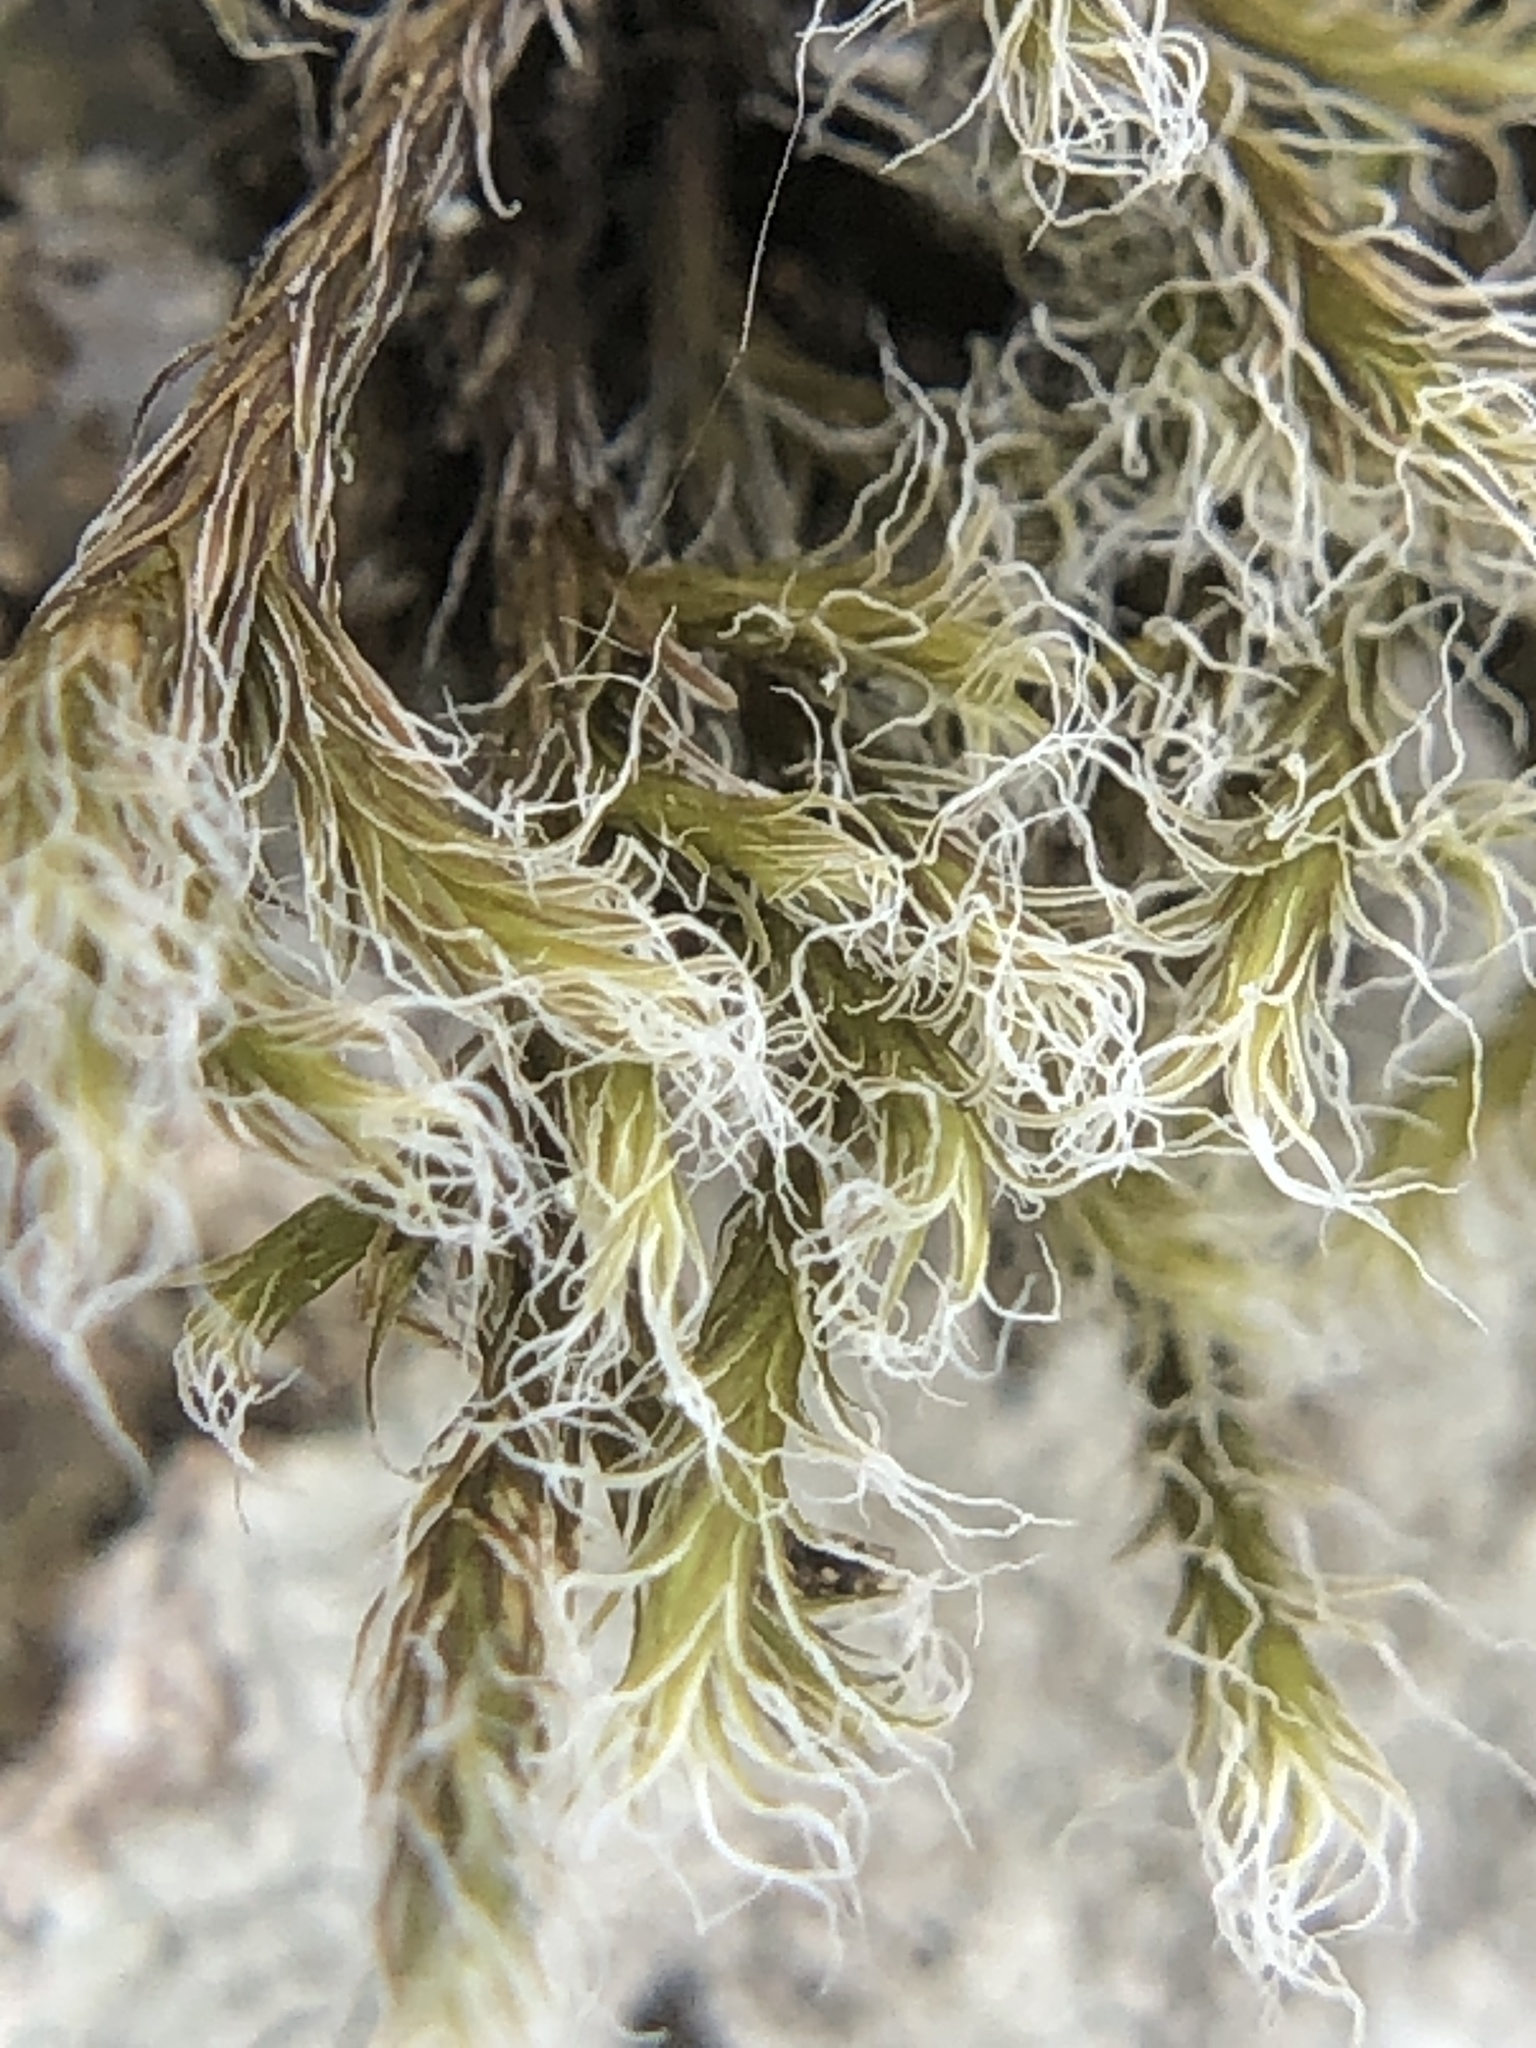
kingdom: Plantae
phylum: Bryophyta
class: Bryopsida
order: Grimmiales
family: Grimmiaceae
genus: Racomitrium
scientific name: Racomitrium lanuginosum
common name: Hoary rock moss
